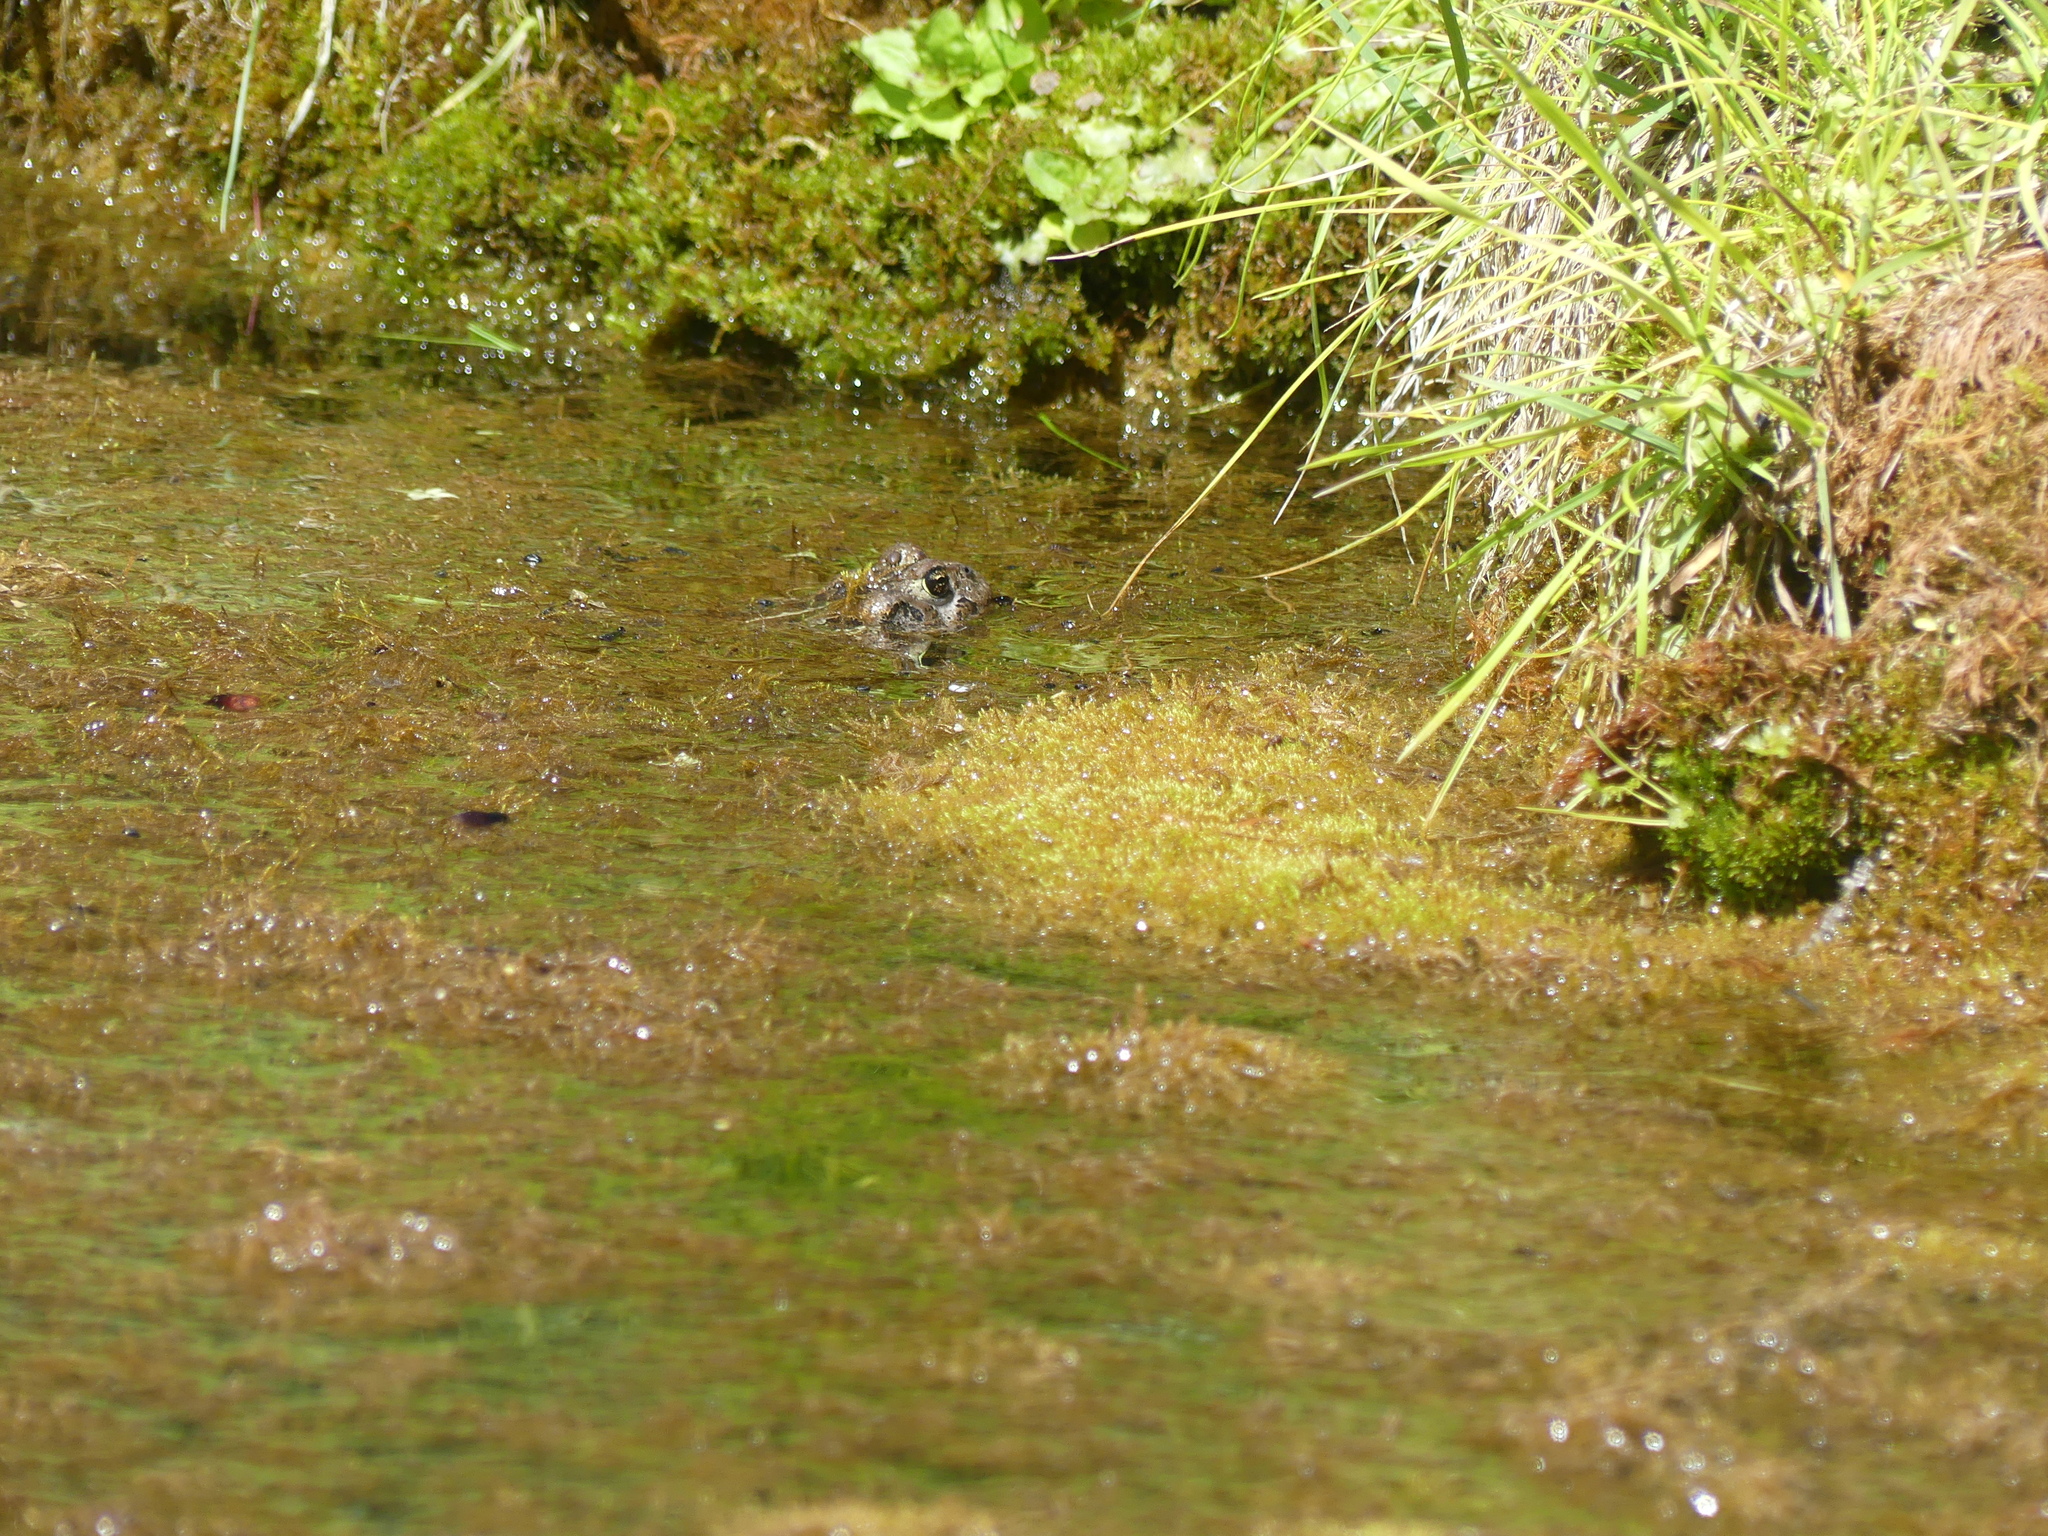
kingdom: Animalia
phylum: Chordata
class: Amphibia
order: Anura
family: Bufonidae
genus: Anaxyrus
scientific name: Anaxyrus boreas
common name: Western toad
